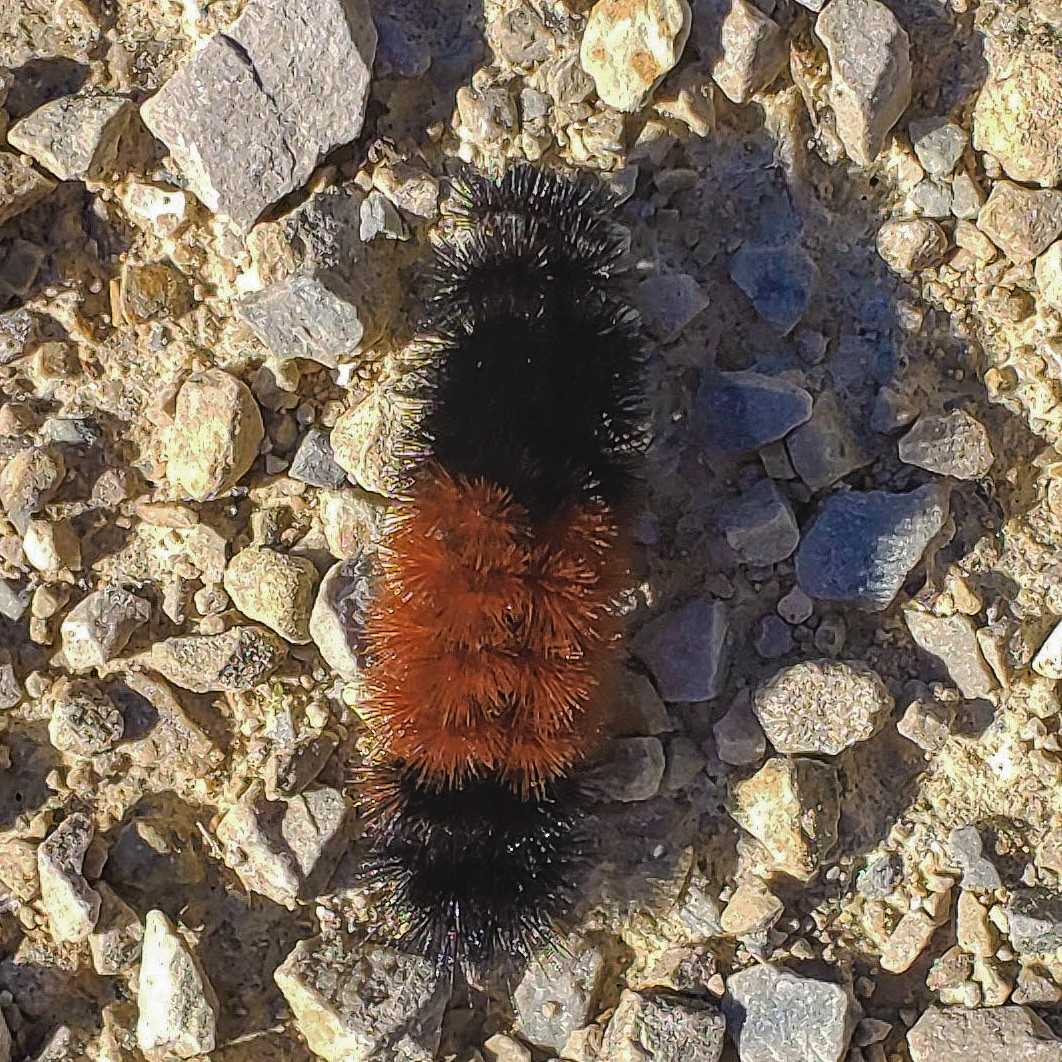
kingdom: Animalia
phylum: Arthropoda
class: Insecta
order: Lepidoptera
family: Erebidae
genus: Pyrrharctia
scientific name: Pyrrharctia isabella
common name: Isabella tiger moth
